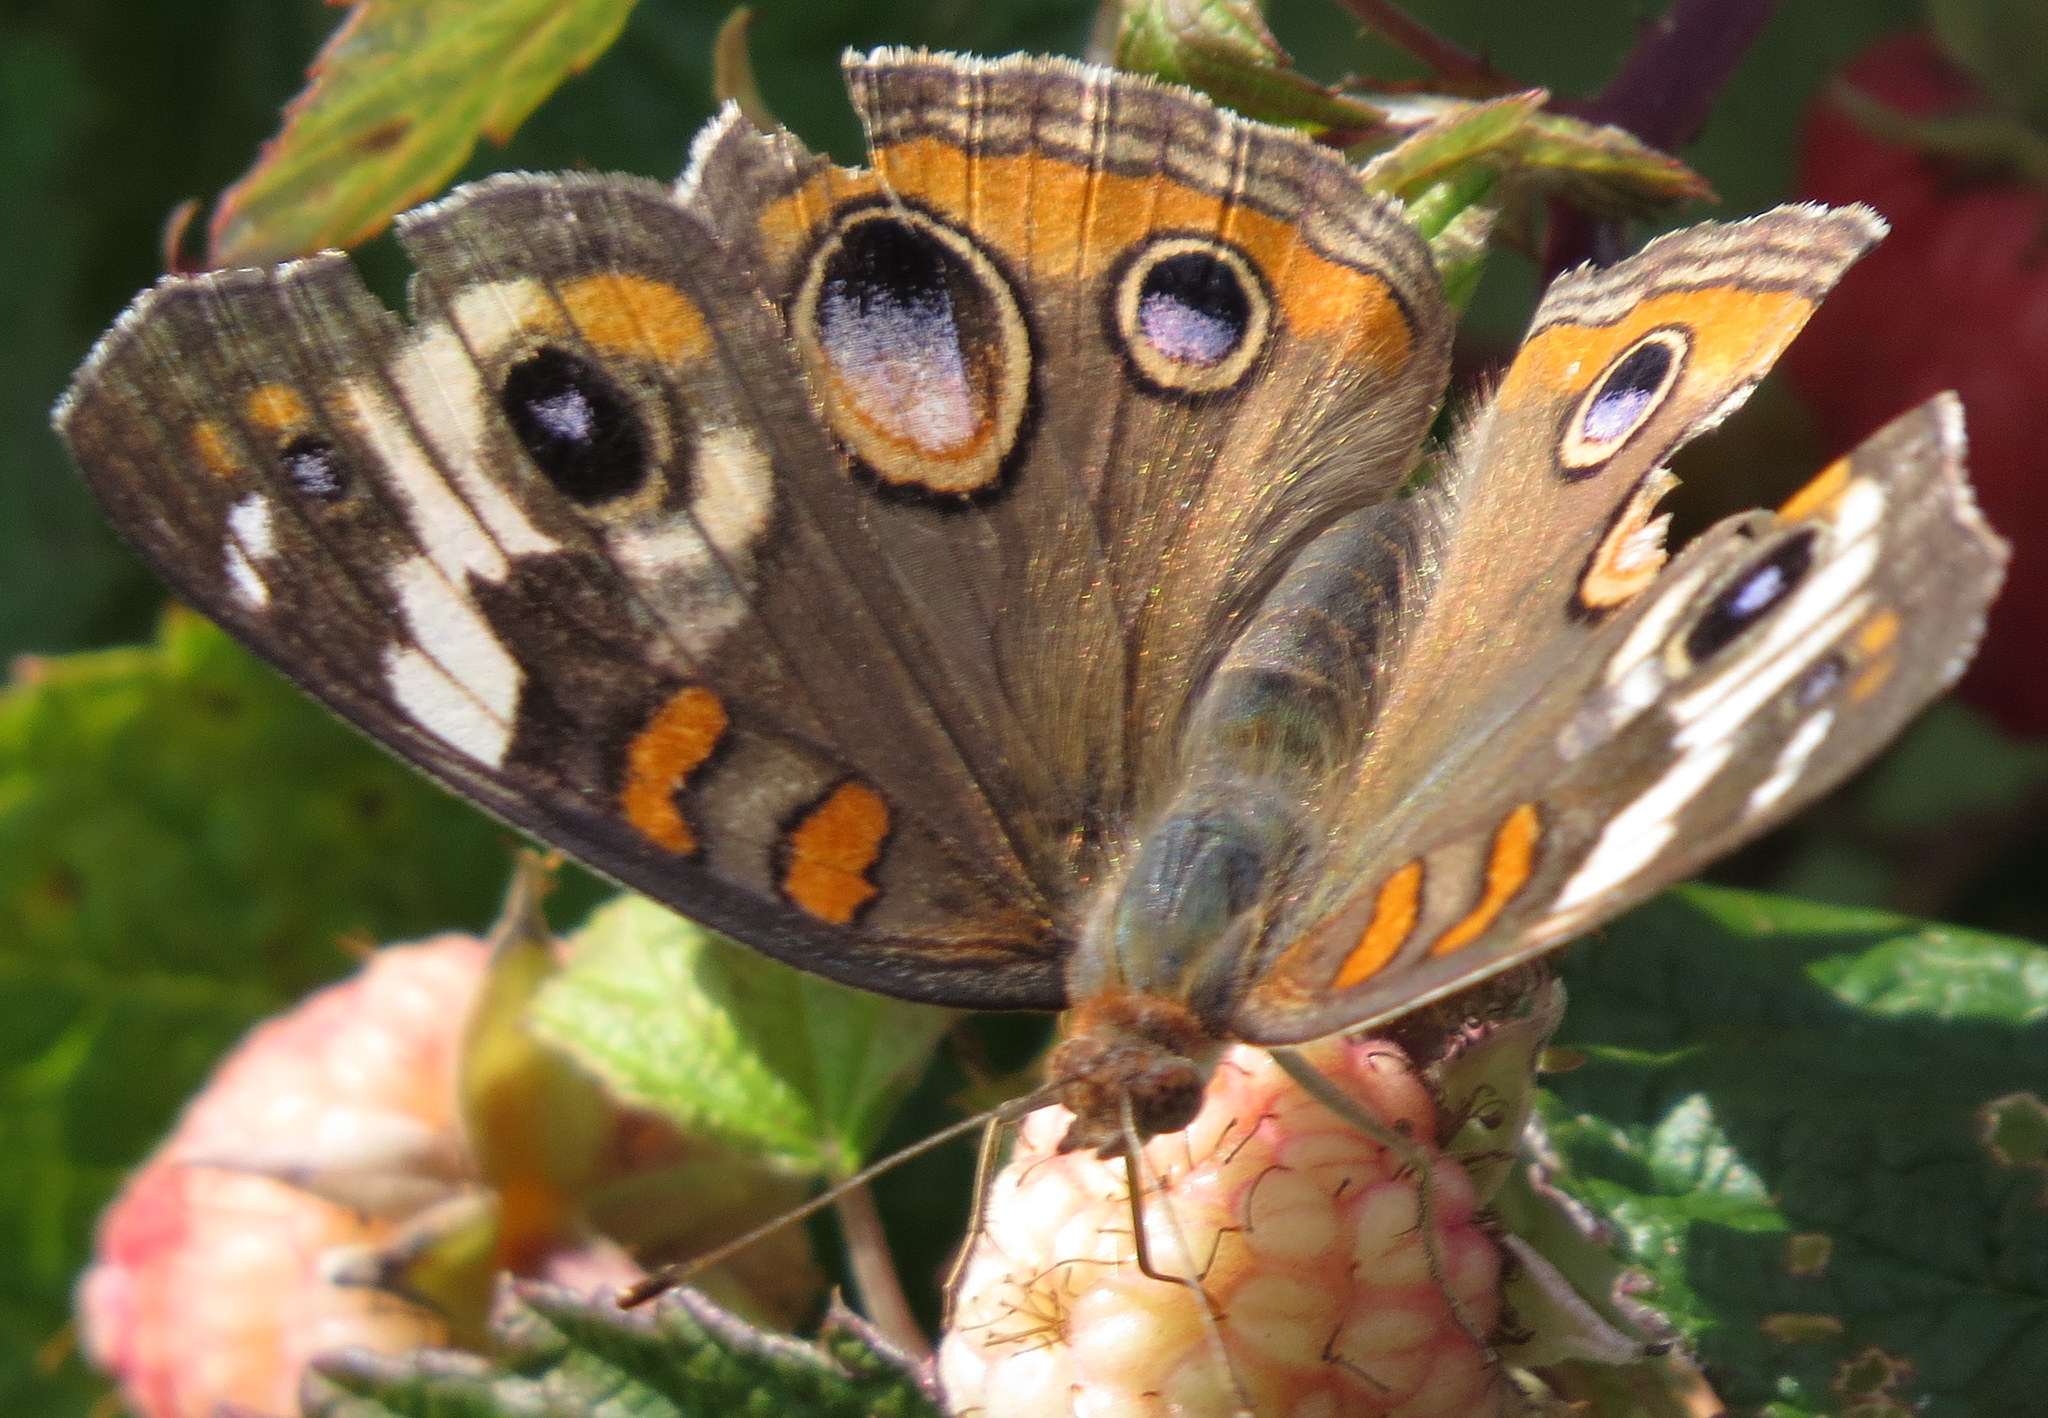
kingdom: Animalia
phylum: Arthropoda
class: Insecta
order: Lepidoptera
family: Nymphalidae
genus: Junonia
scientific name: Junonia coenia
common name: Common buckeye
